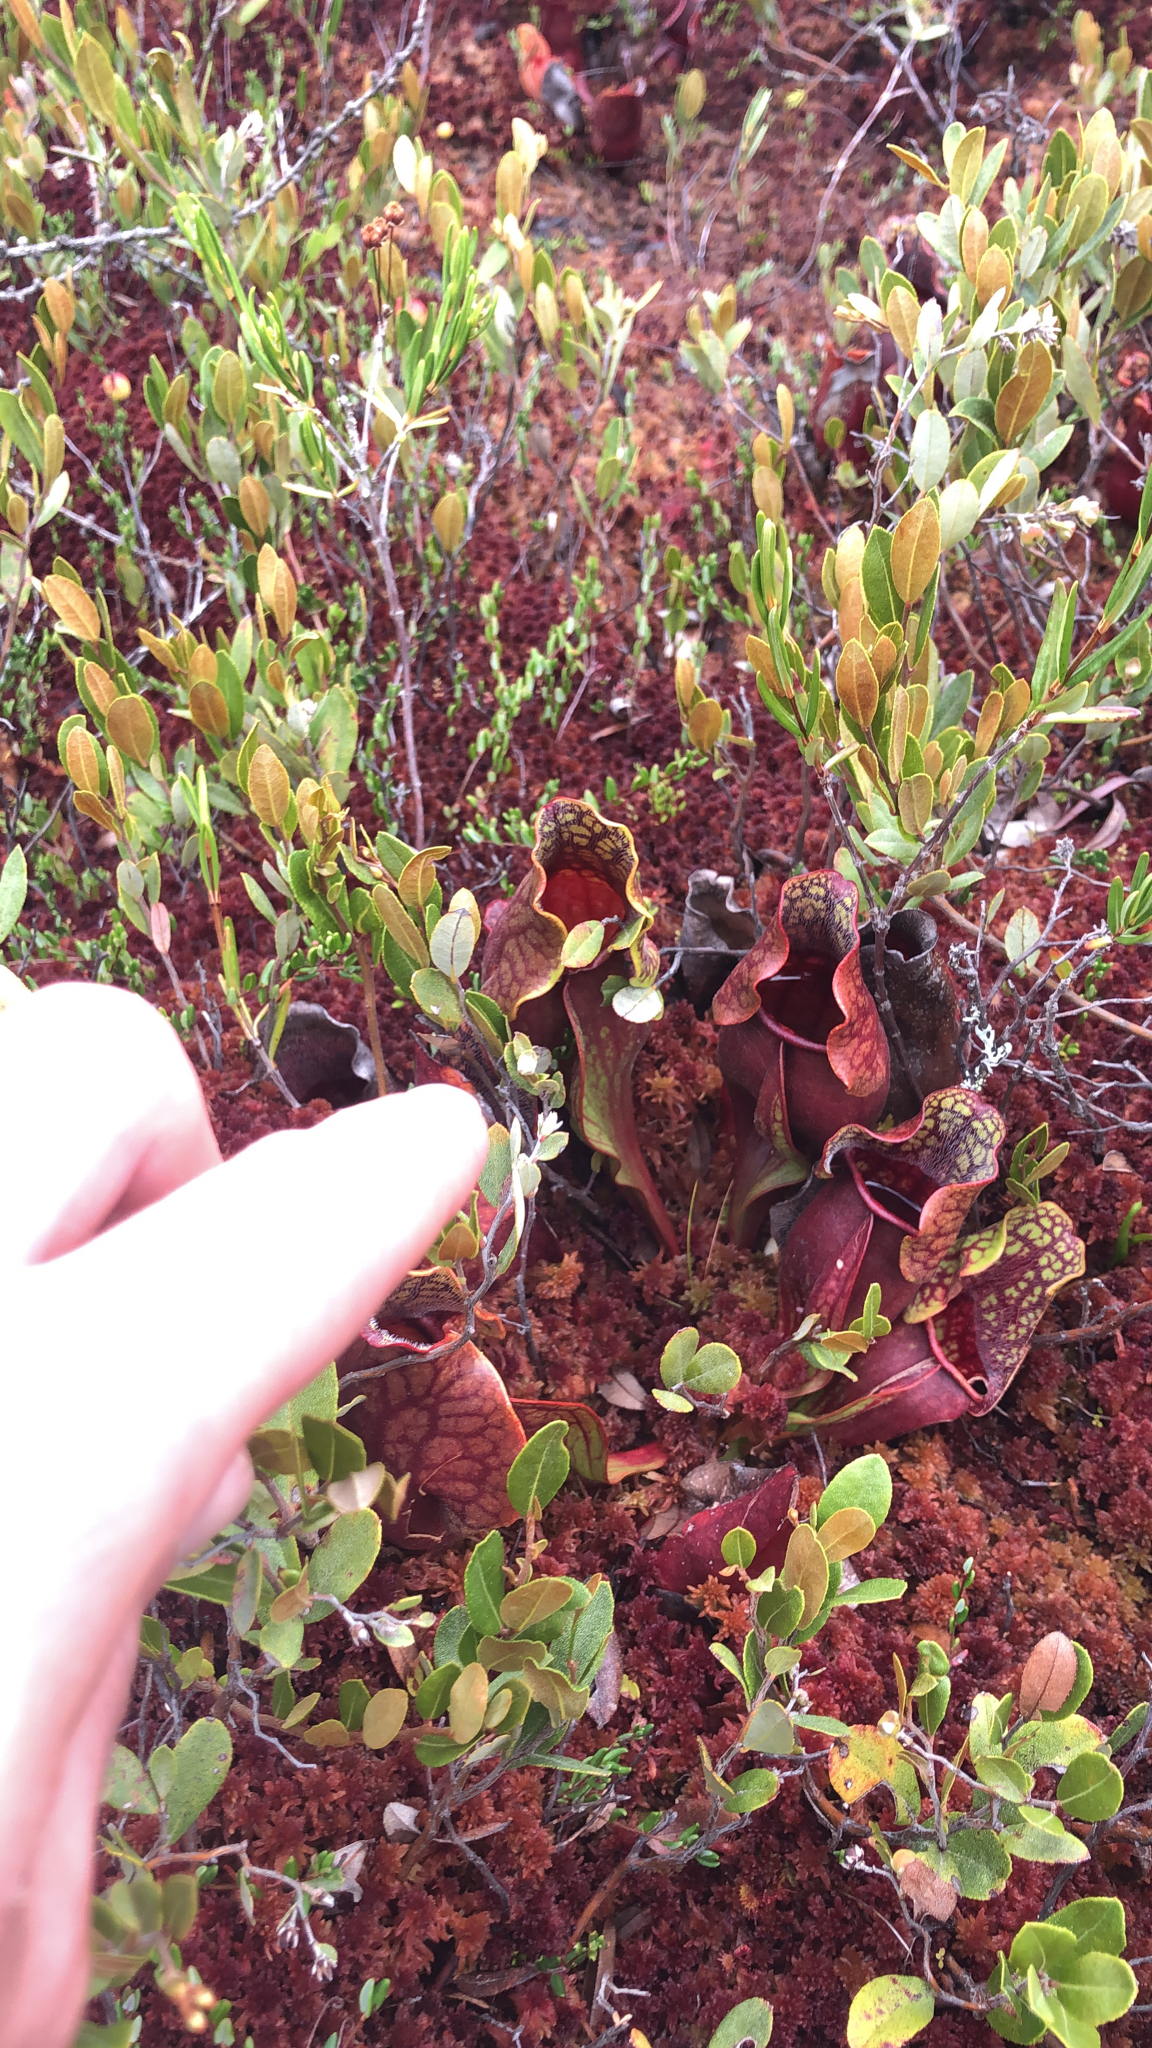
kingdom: Plantae
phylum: Tracheophyta
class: Magnoliopsida
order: Ericales
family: Sarraceniaceae
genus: Sarracenia
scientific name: Sarracenia purpurea
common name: Pitcherplant
